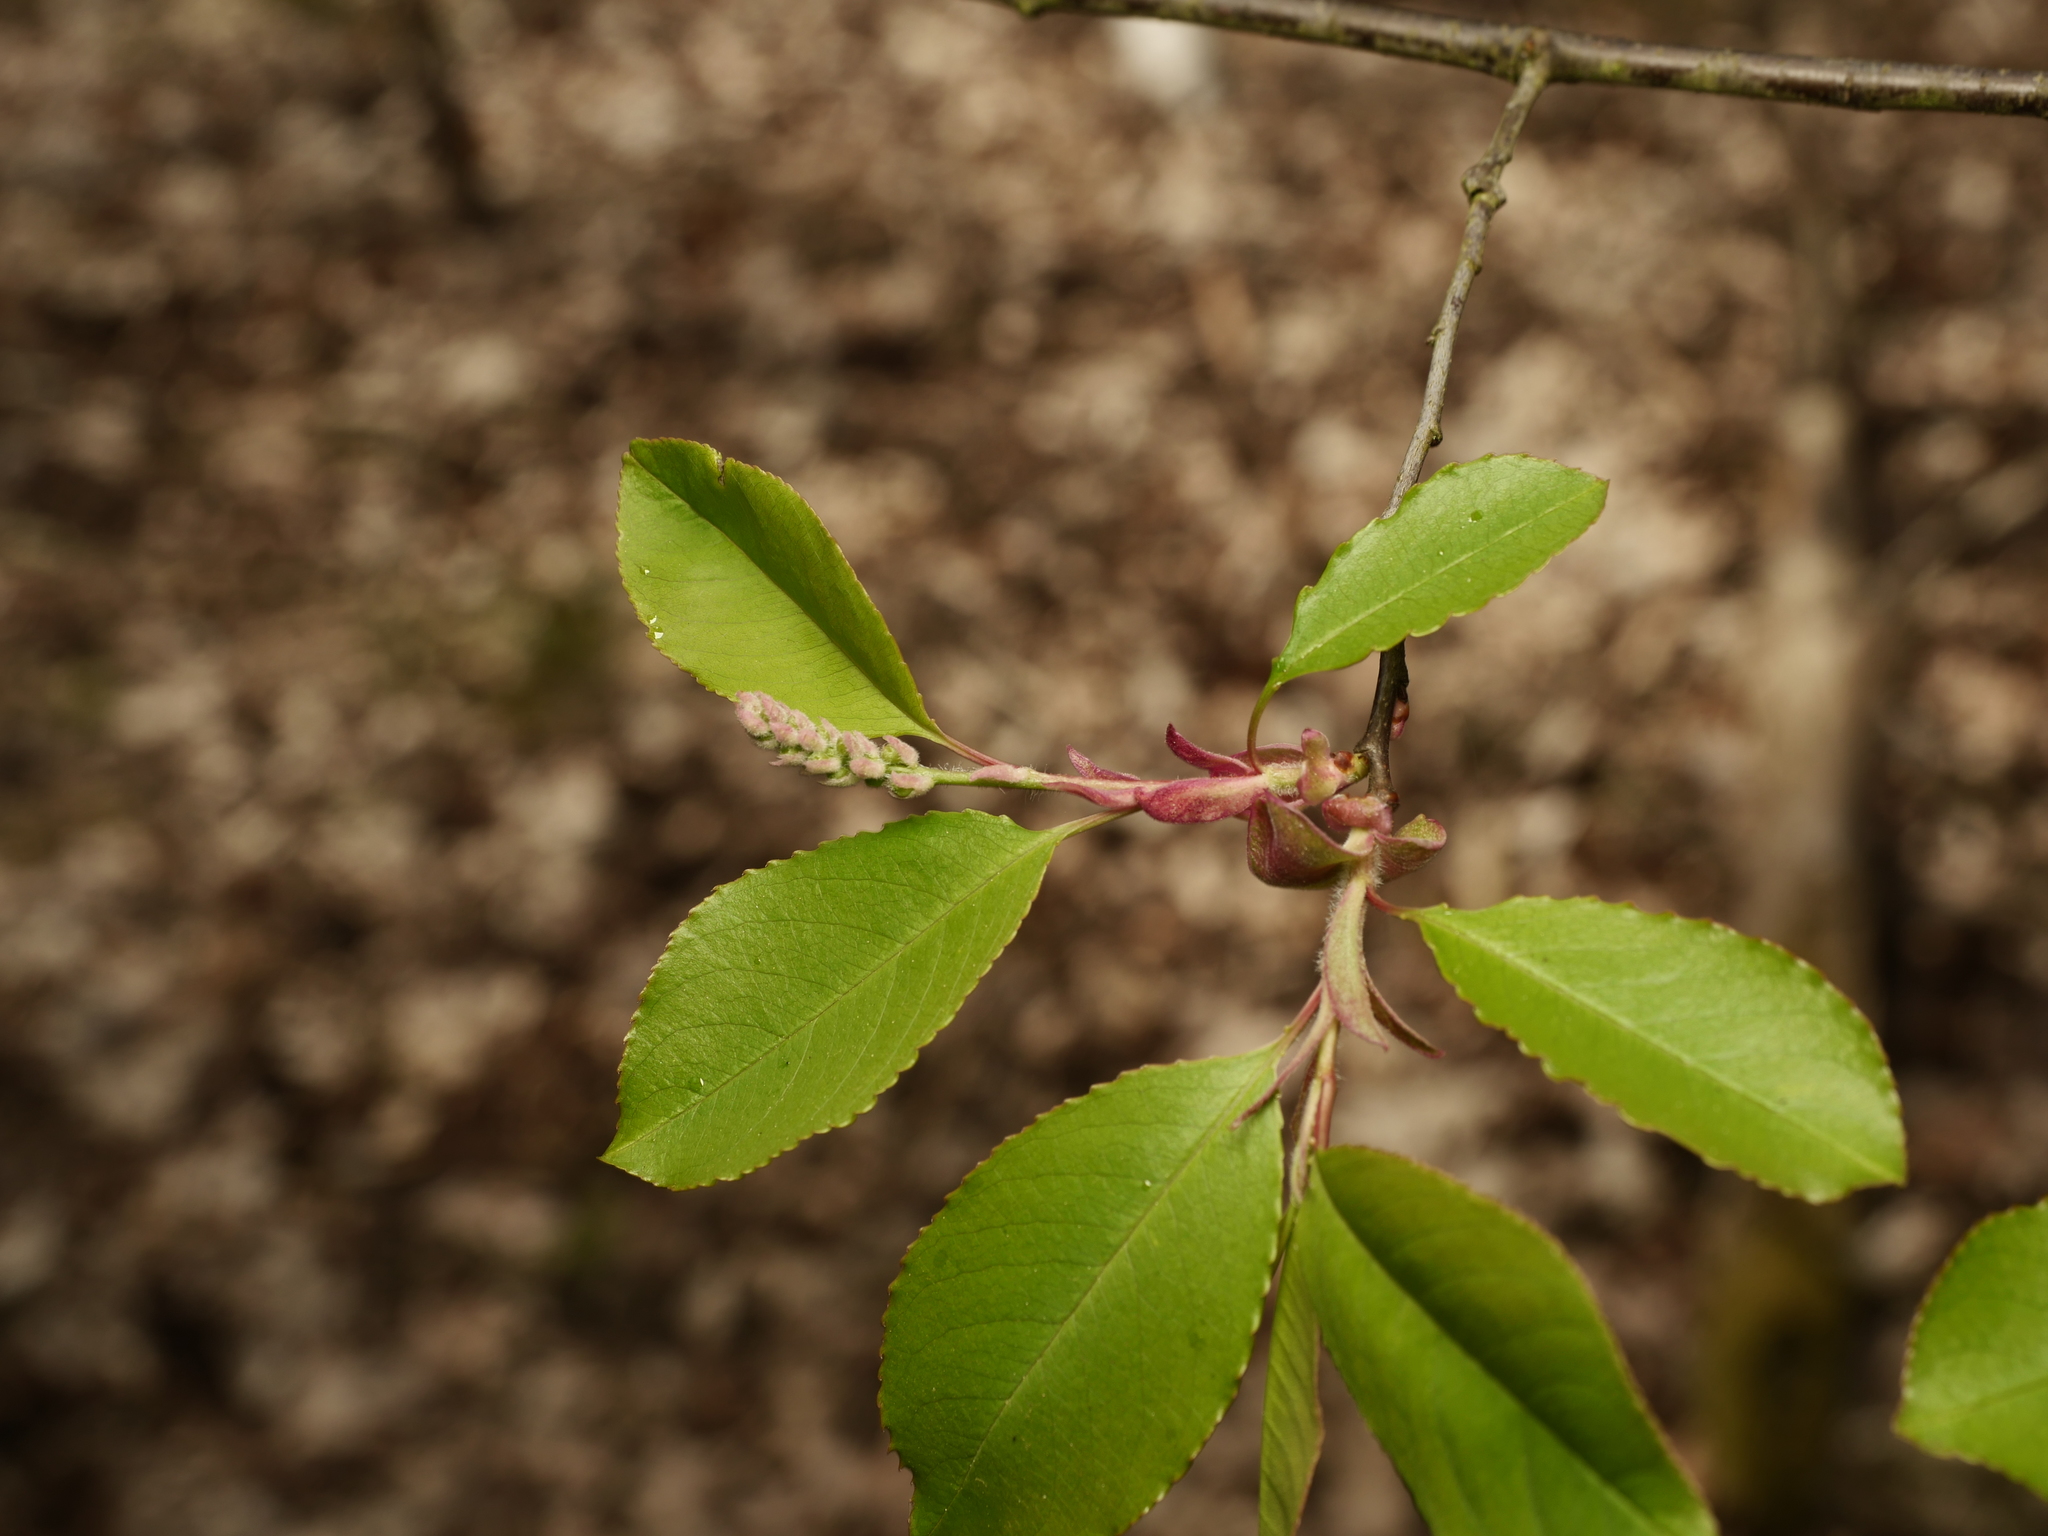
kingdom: Plantae
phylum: Tracheophyta
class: Magnoliopsida
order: Rosales
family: Rosaceae
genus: Prunus
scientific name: Prunus serotina
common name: Black cherry
